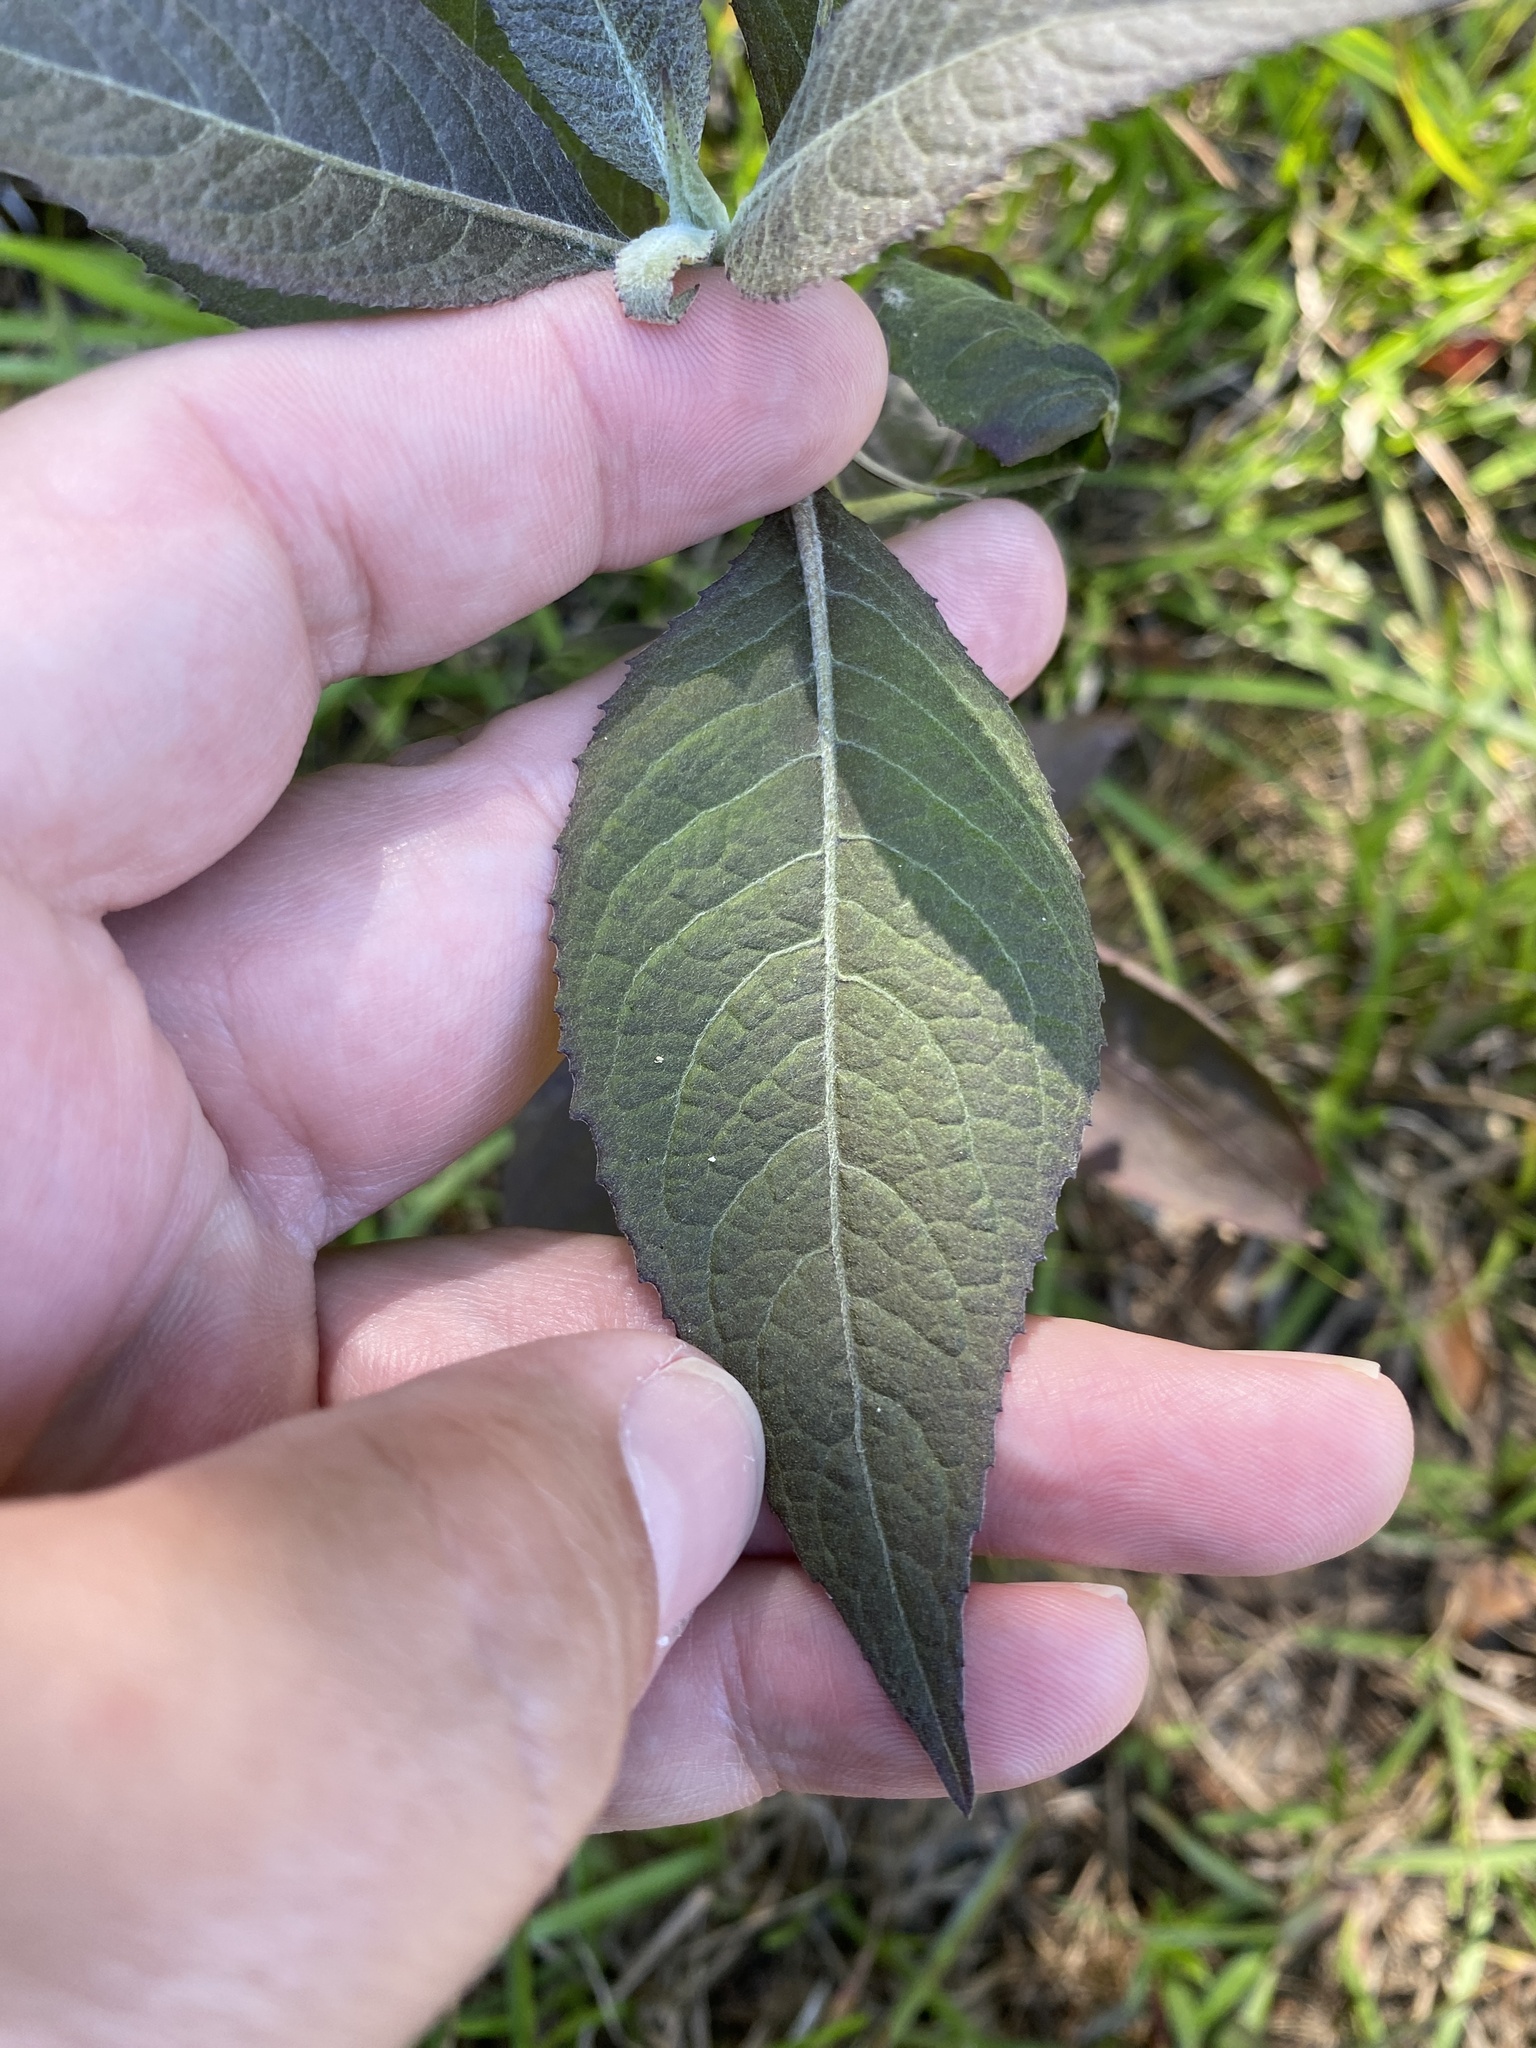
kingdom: Plantae
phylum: Tracheophyta
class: Magnoliopsida
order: Asterales
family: Asteraceae
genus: Pluchea
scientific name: Pluchea camphorata
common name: Camphor pluchea
